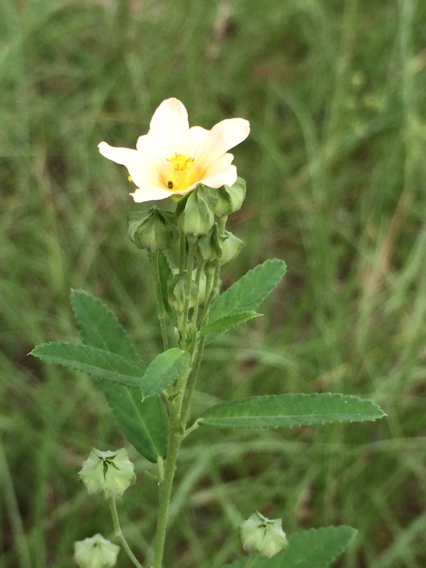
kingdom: Plantae
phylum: Tracheophyta
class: Magnoliopsida
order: Malvales
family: Malvaceae
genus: Sida
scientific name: Sida rhombifolia
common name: Queensland-hemp
